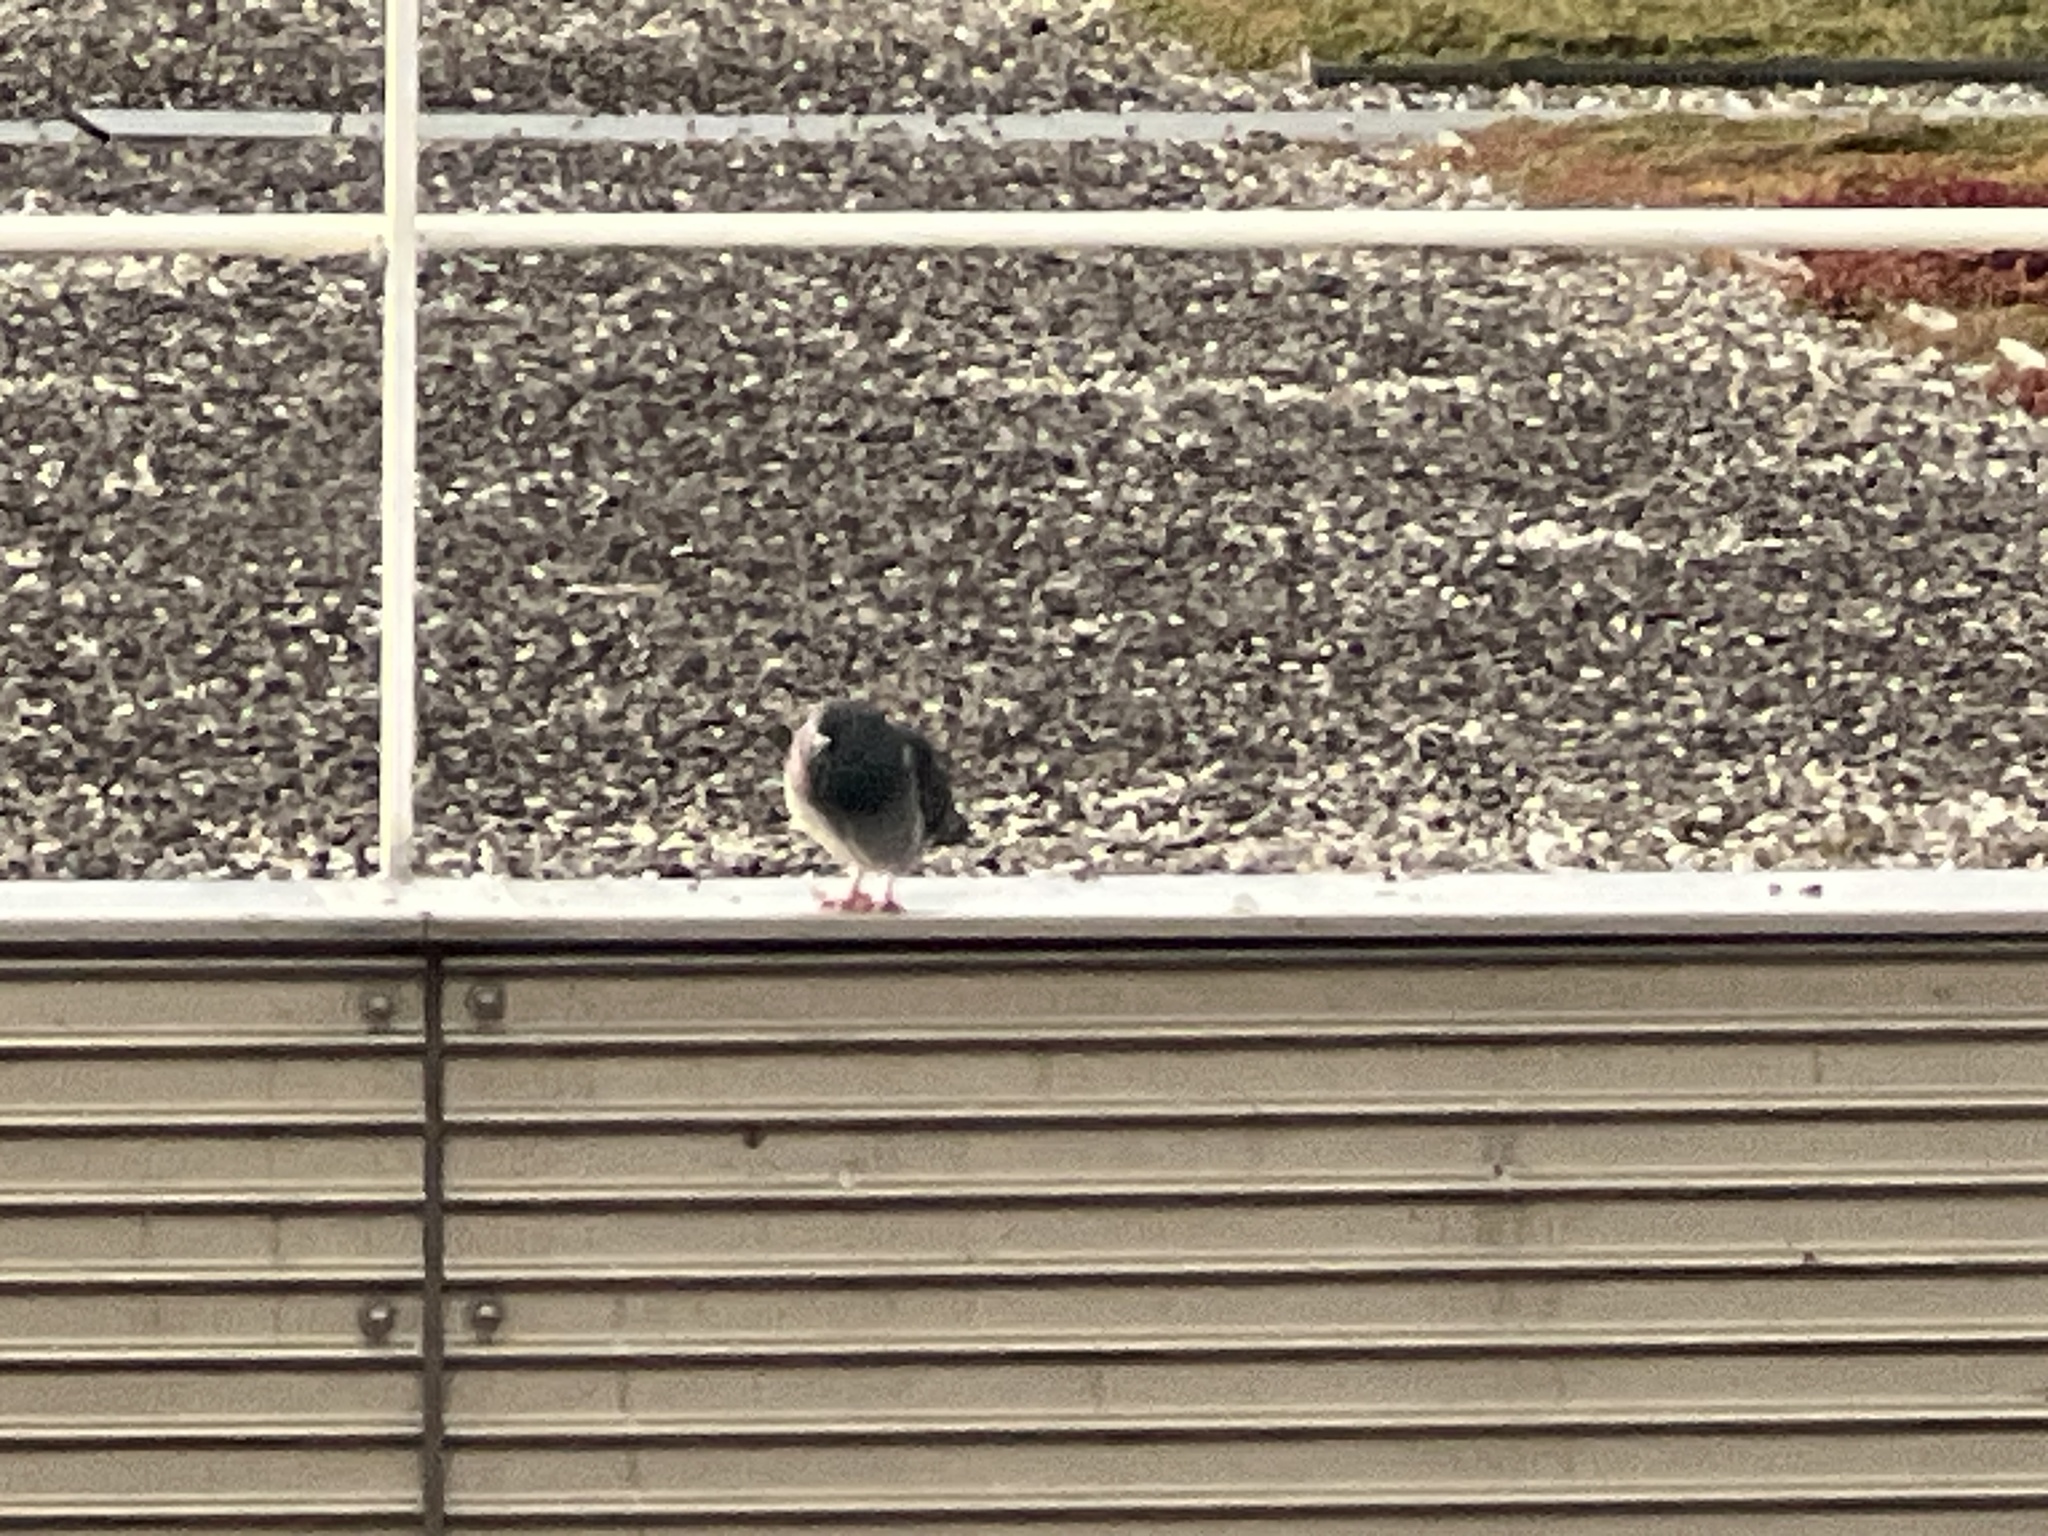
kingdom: Animalia
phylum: Chordata
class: Aves
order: Columbiformes
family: Columbidae
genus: Columba
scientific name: Columba livia
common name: Rock pigeon
